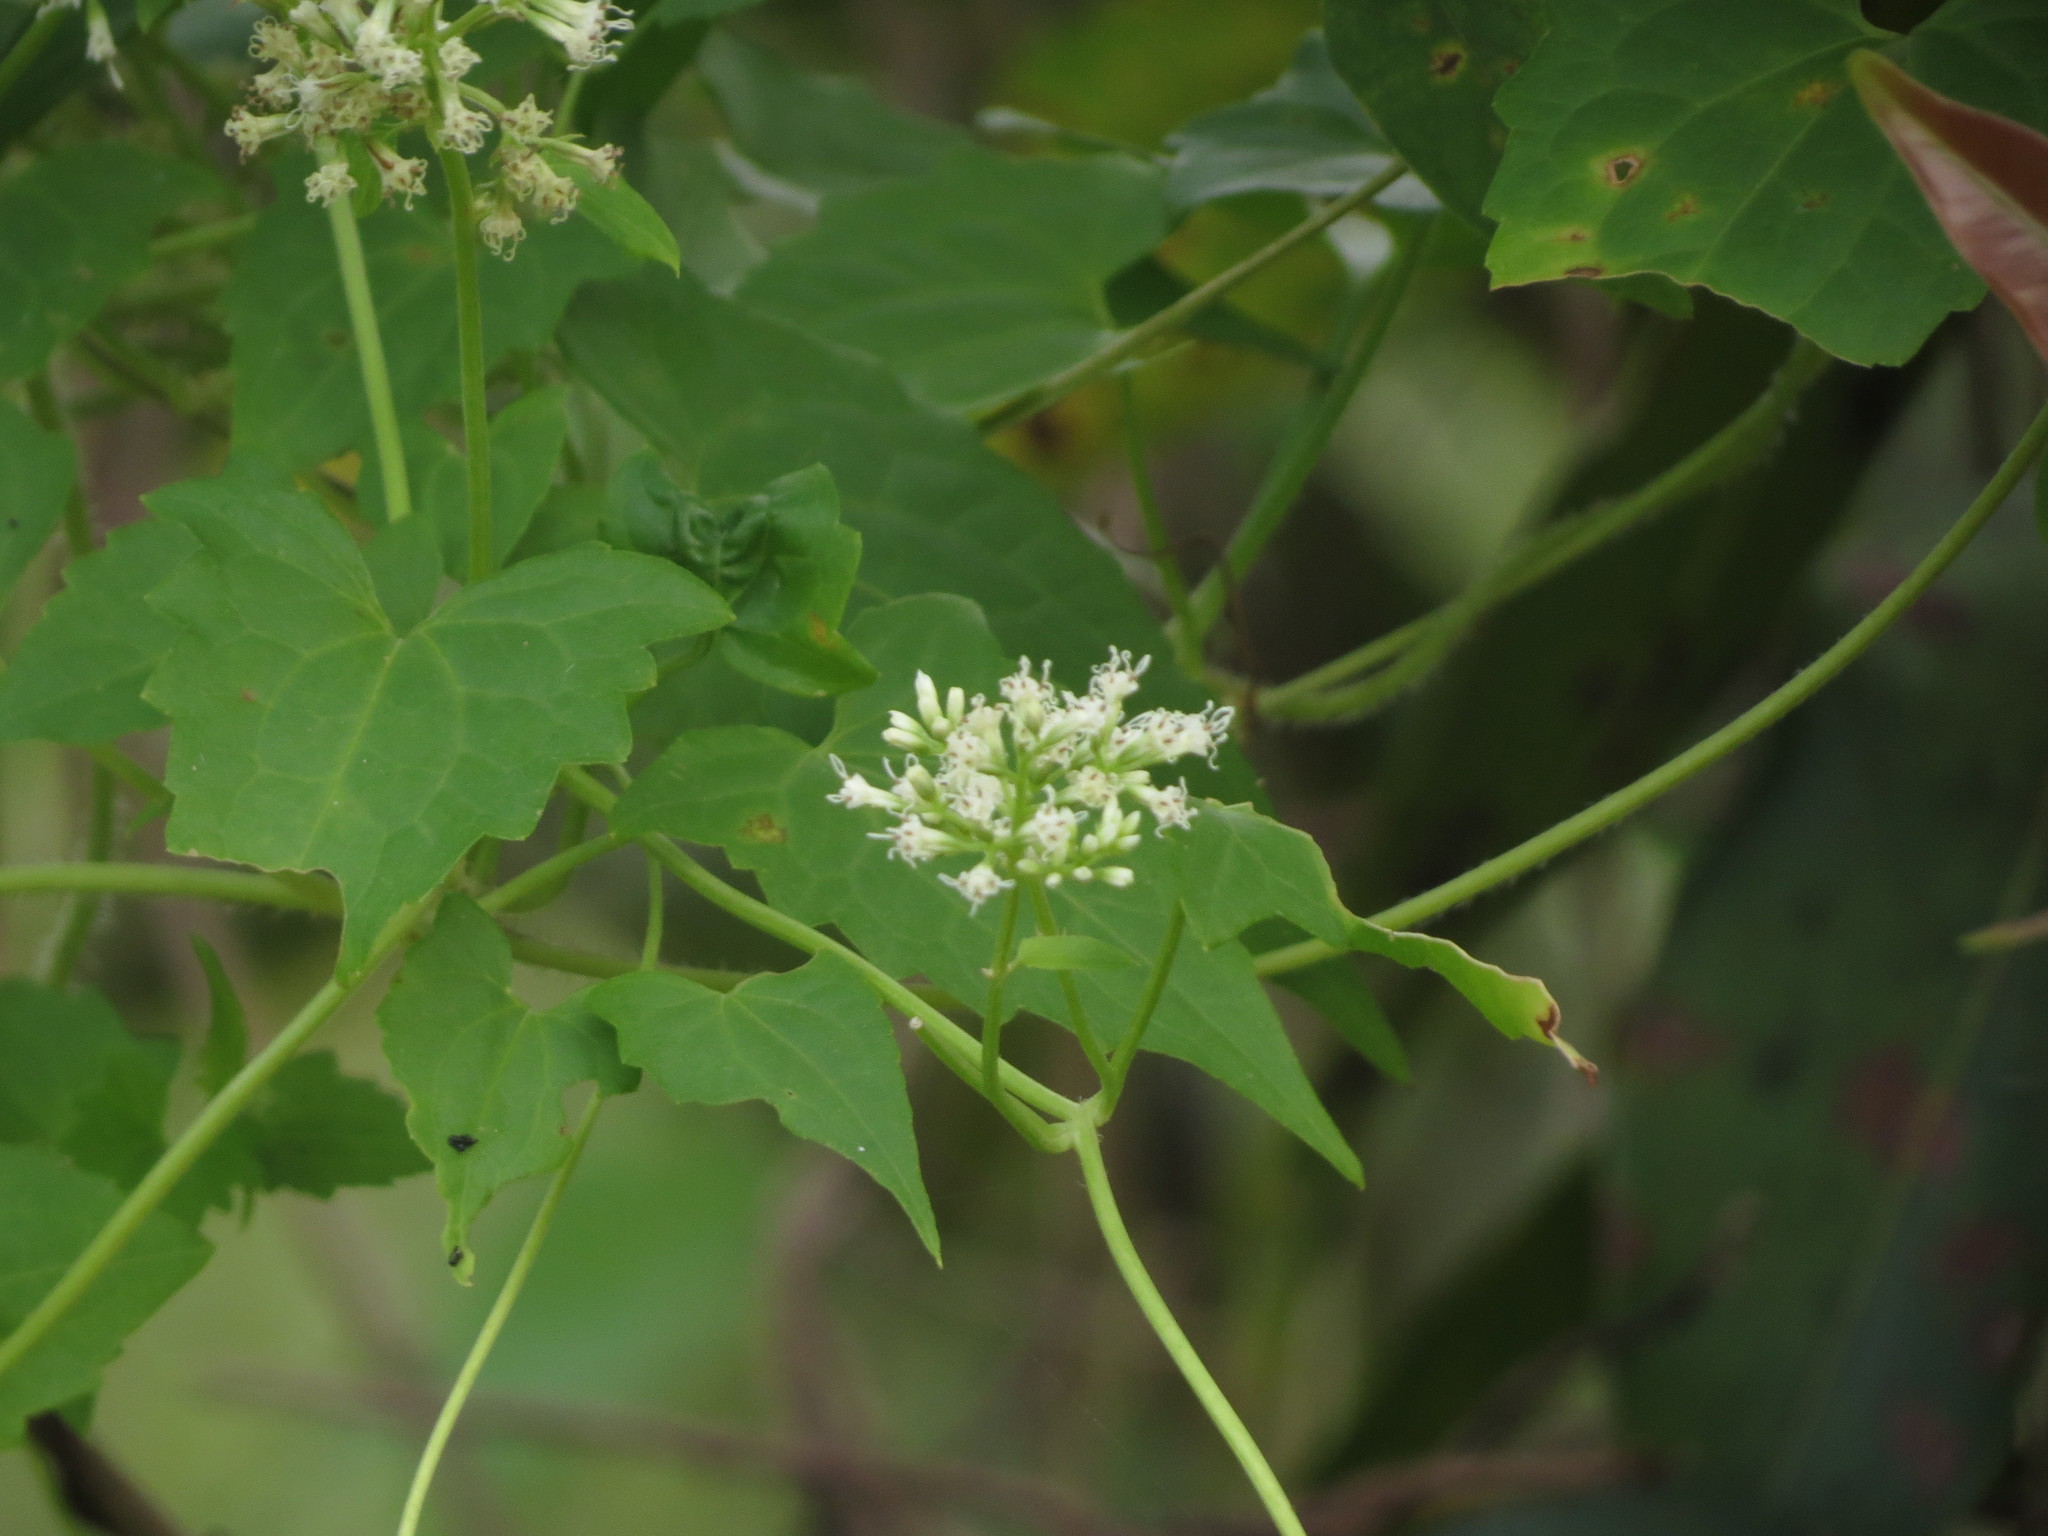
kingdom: Plantae
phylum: Tracheophyta
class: Magnoliopsida
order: Asterales
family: Asteraceae
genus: Mikania
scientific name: Mikania micrantha
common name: Mile-a-minute
